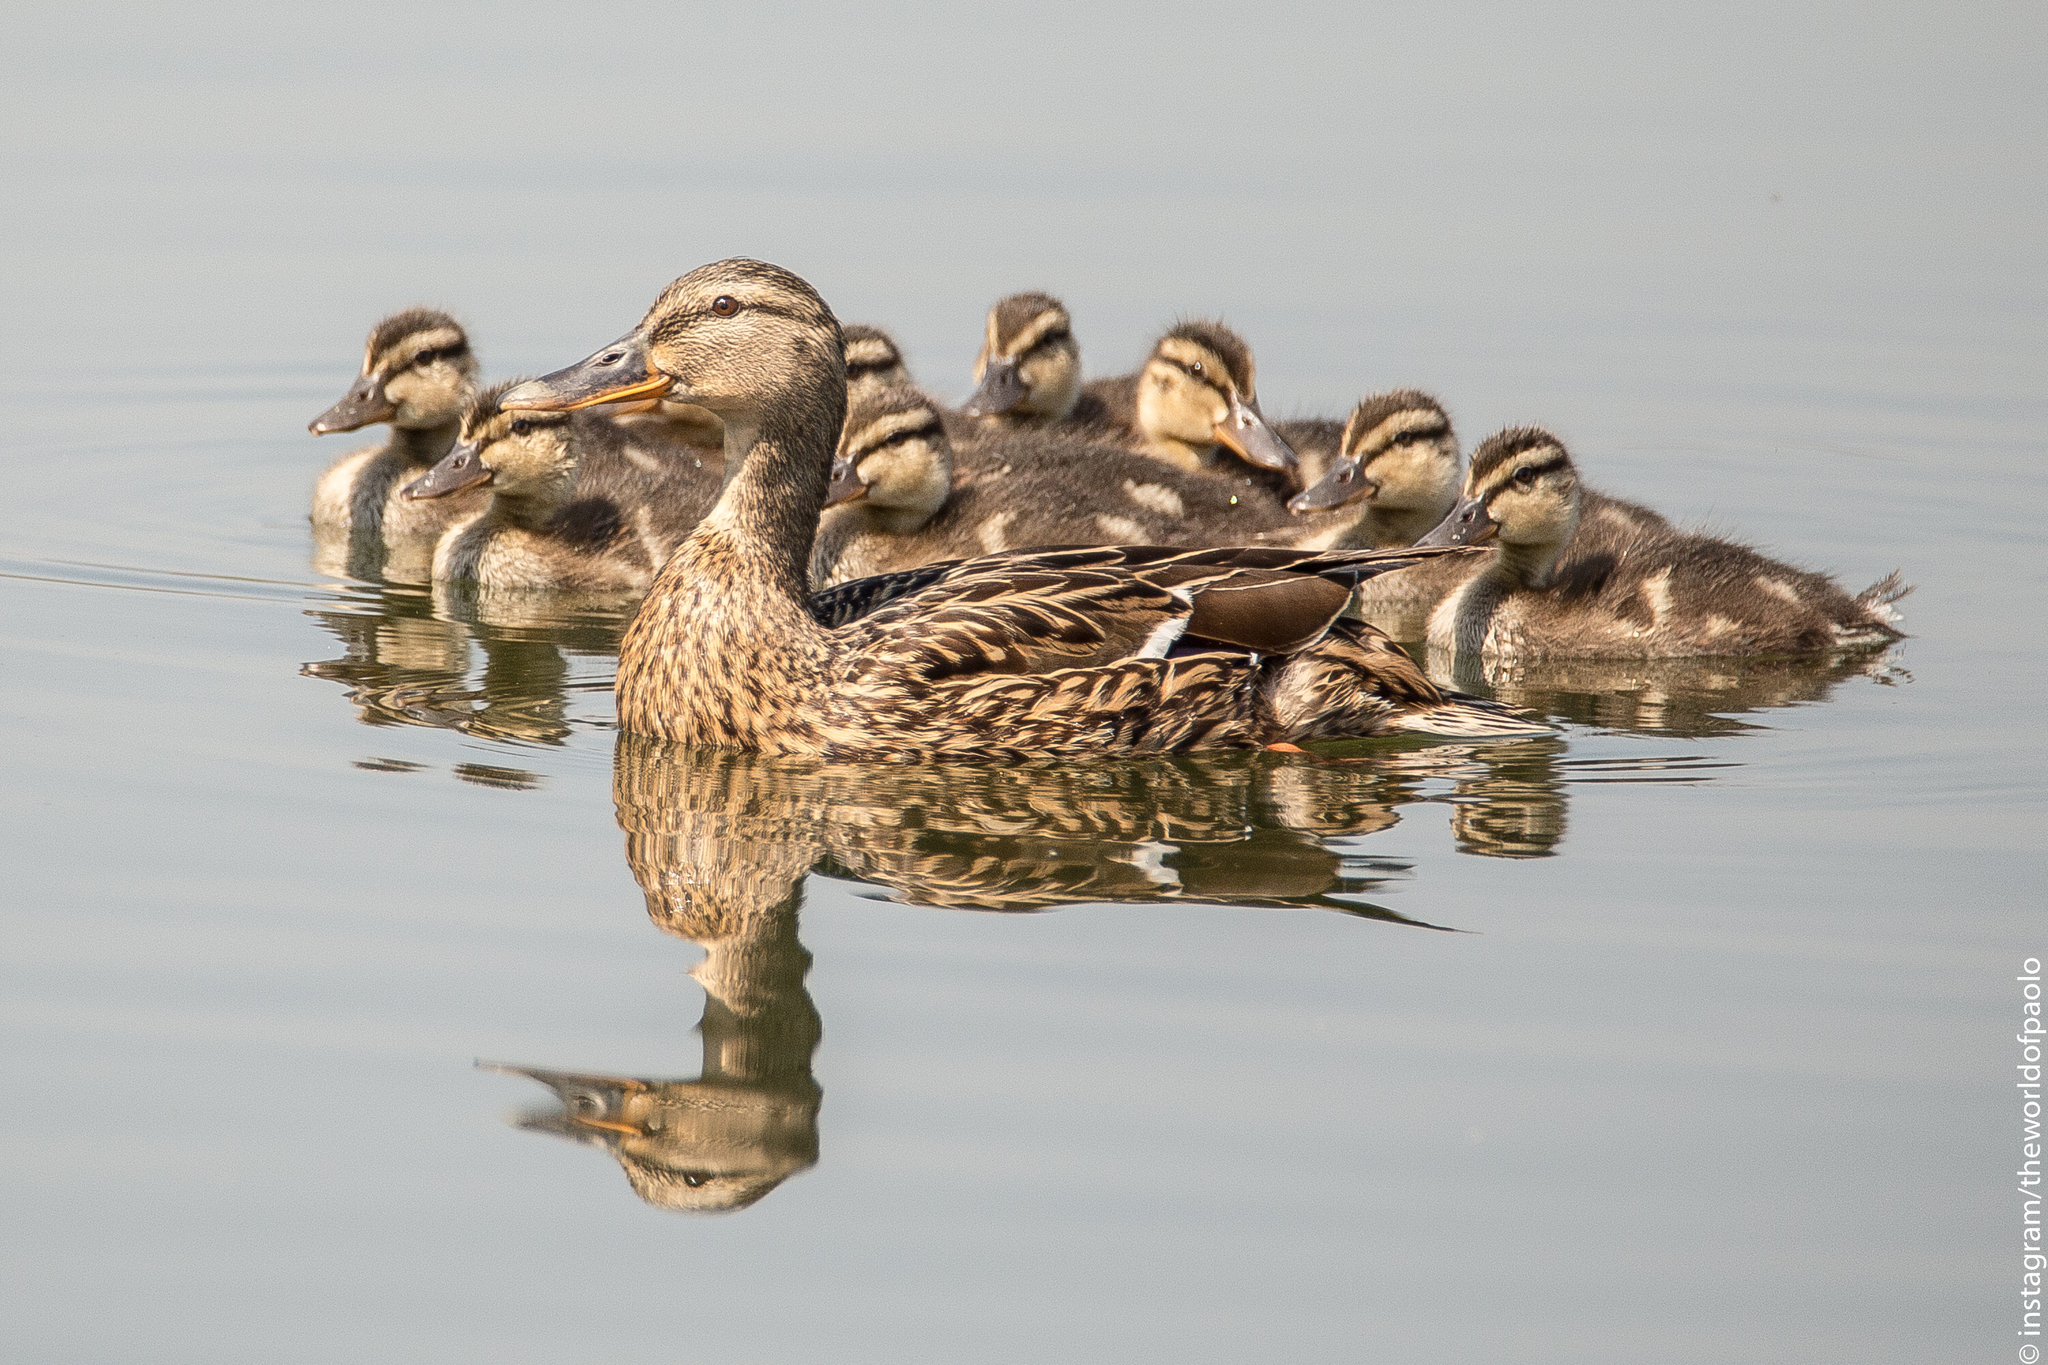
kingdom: Animalia
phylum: Chordata
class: Aves
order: Anseriformes
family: Anatidae
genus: Anas
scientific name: Anas platyrhynchos
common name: Mallard
